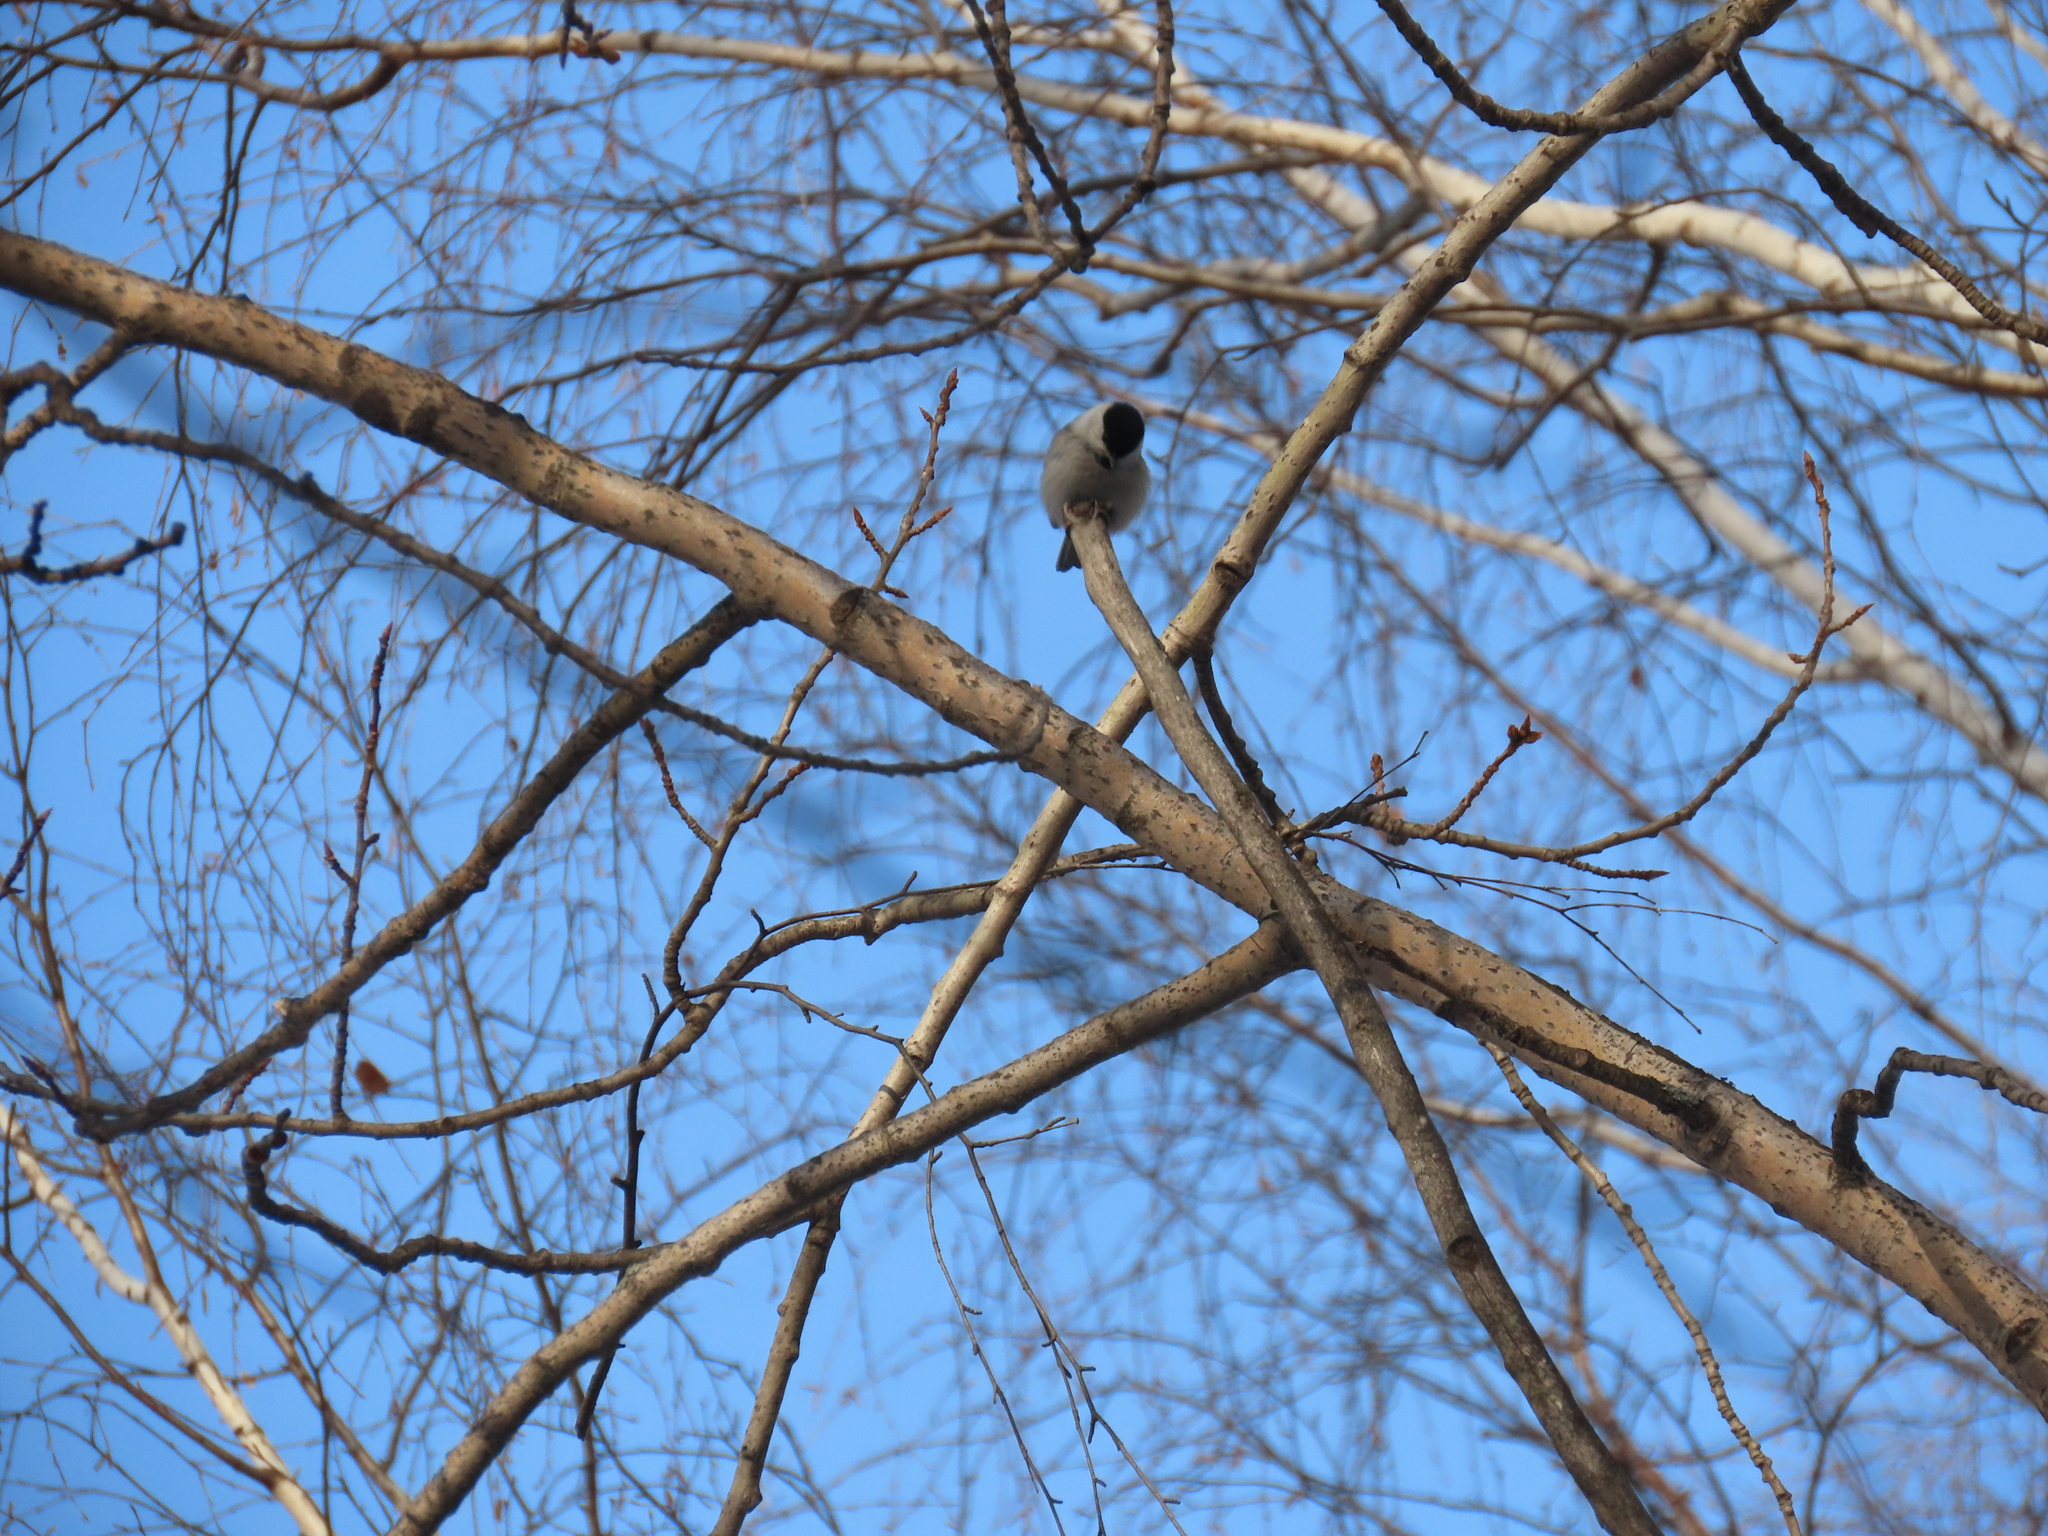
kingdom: Animalia
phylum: Chordata
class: Aves
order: Passeriformes
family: Paridae
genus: Poecile
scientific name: Poecile montanus
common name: Willow tit
